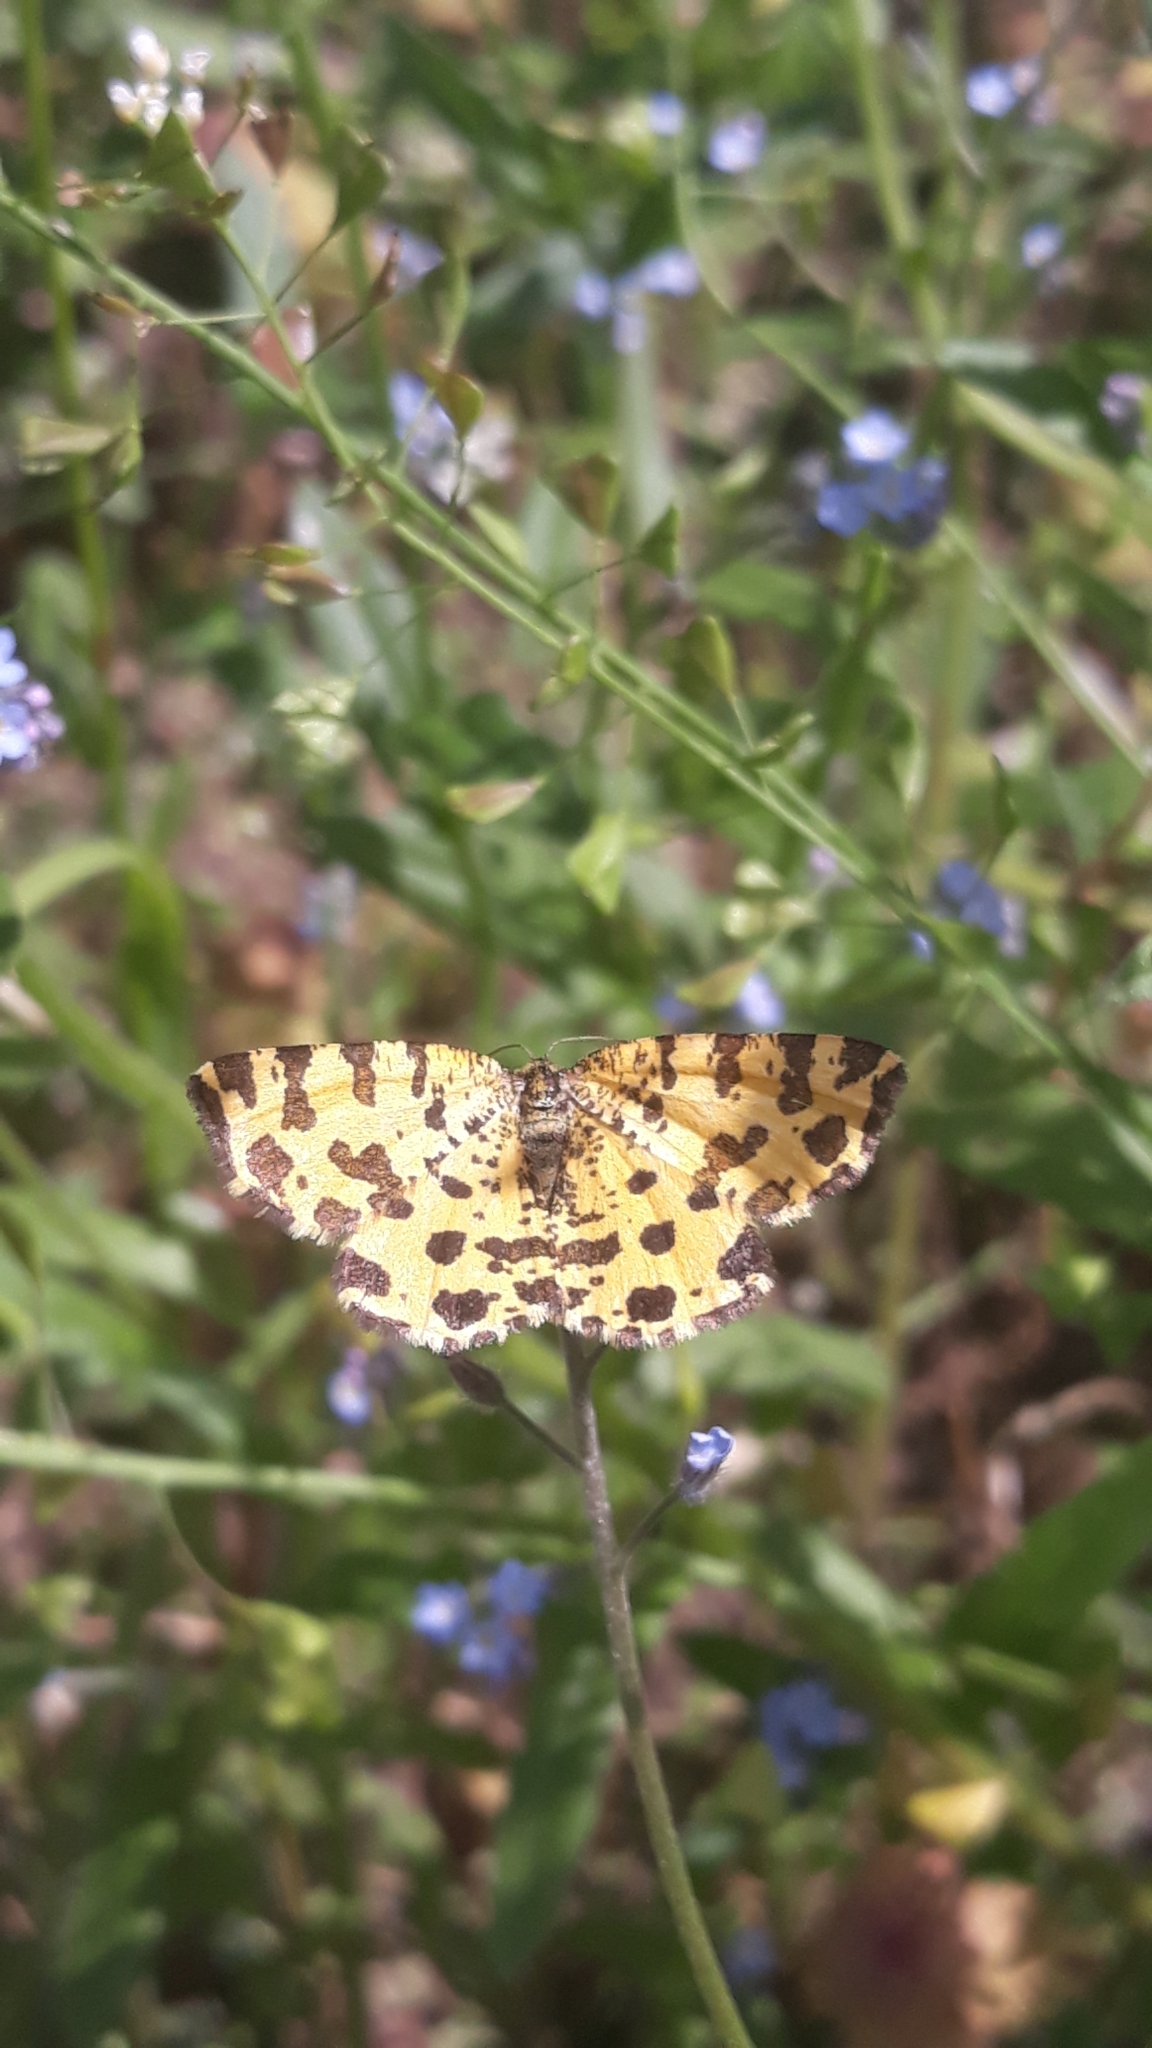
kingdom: Animalia
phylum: Arthropoda
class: Insecta
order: Lepidoptera
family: Geometridae
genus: Pseudopanthera
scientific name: Pseudopanthera macularia
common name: Speckled yellow
